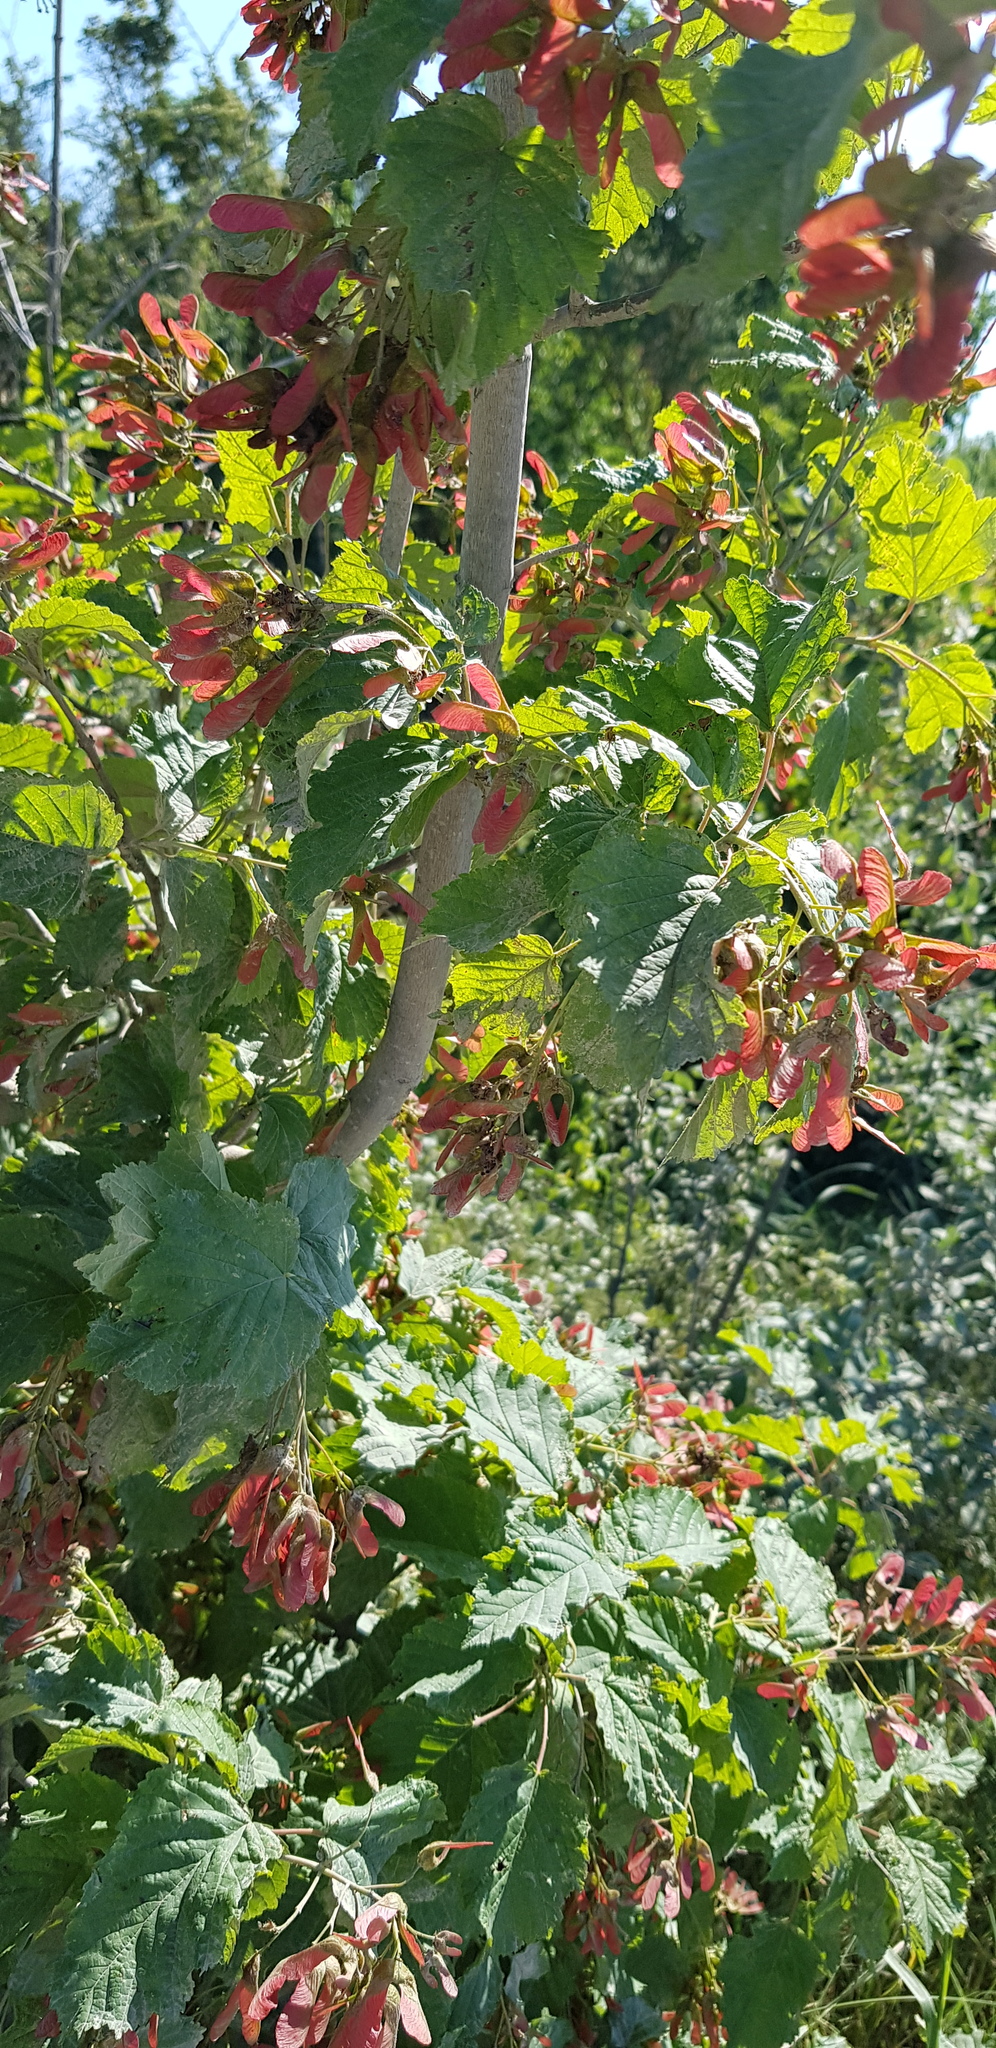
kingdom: Plantae
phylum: Tracheophyta
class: Magnoliopsida
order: Sapindales
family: Sapindaceae
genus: Acer
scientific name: Acer tataricum
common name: Tartar maple
